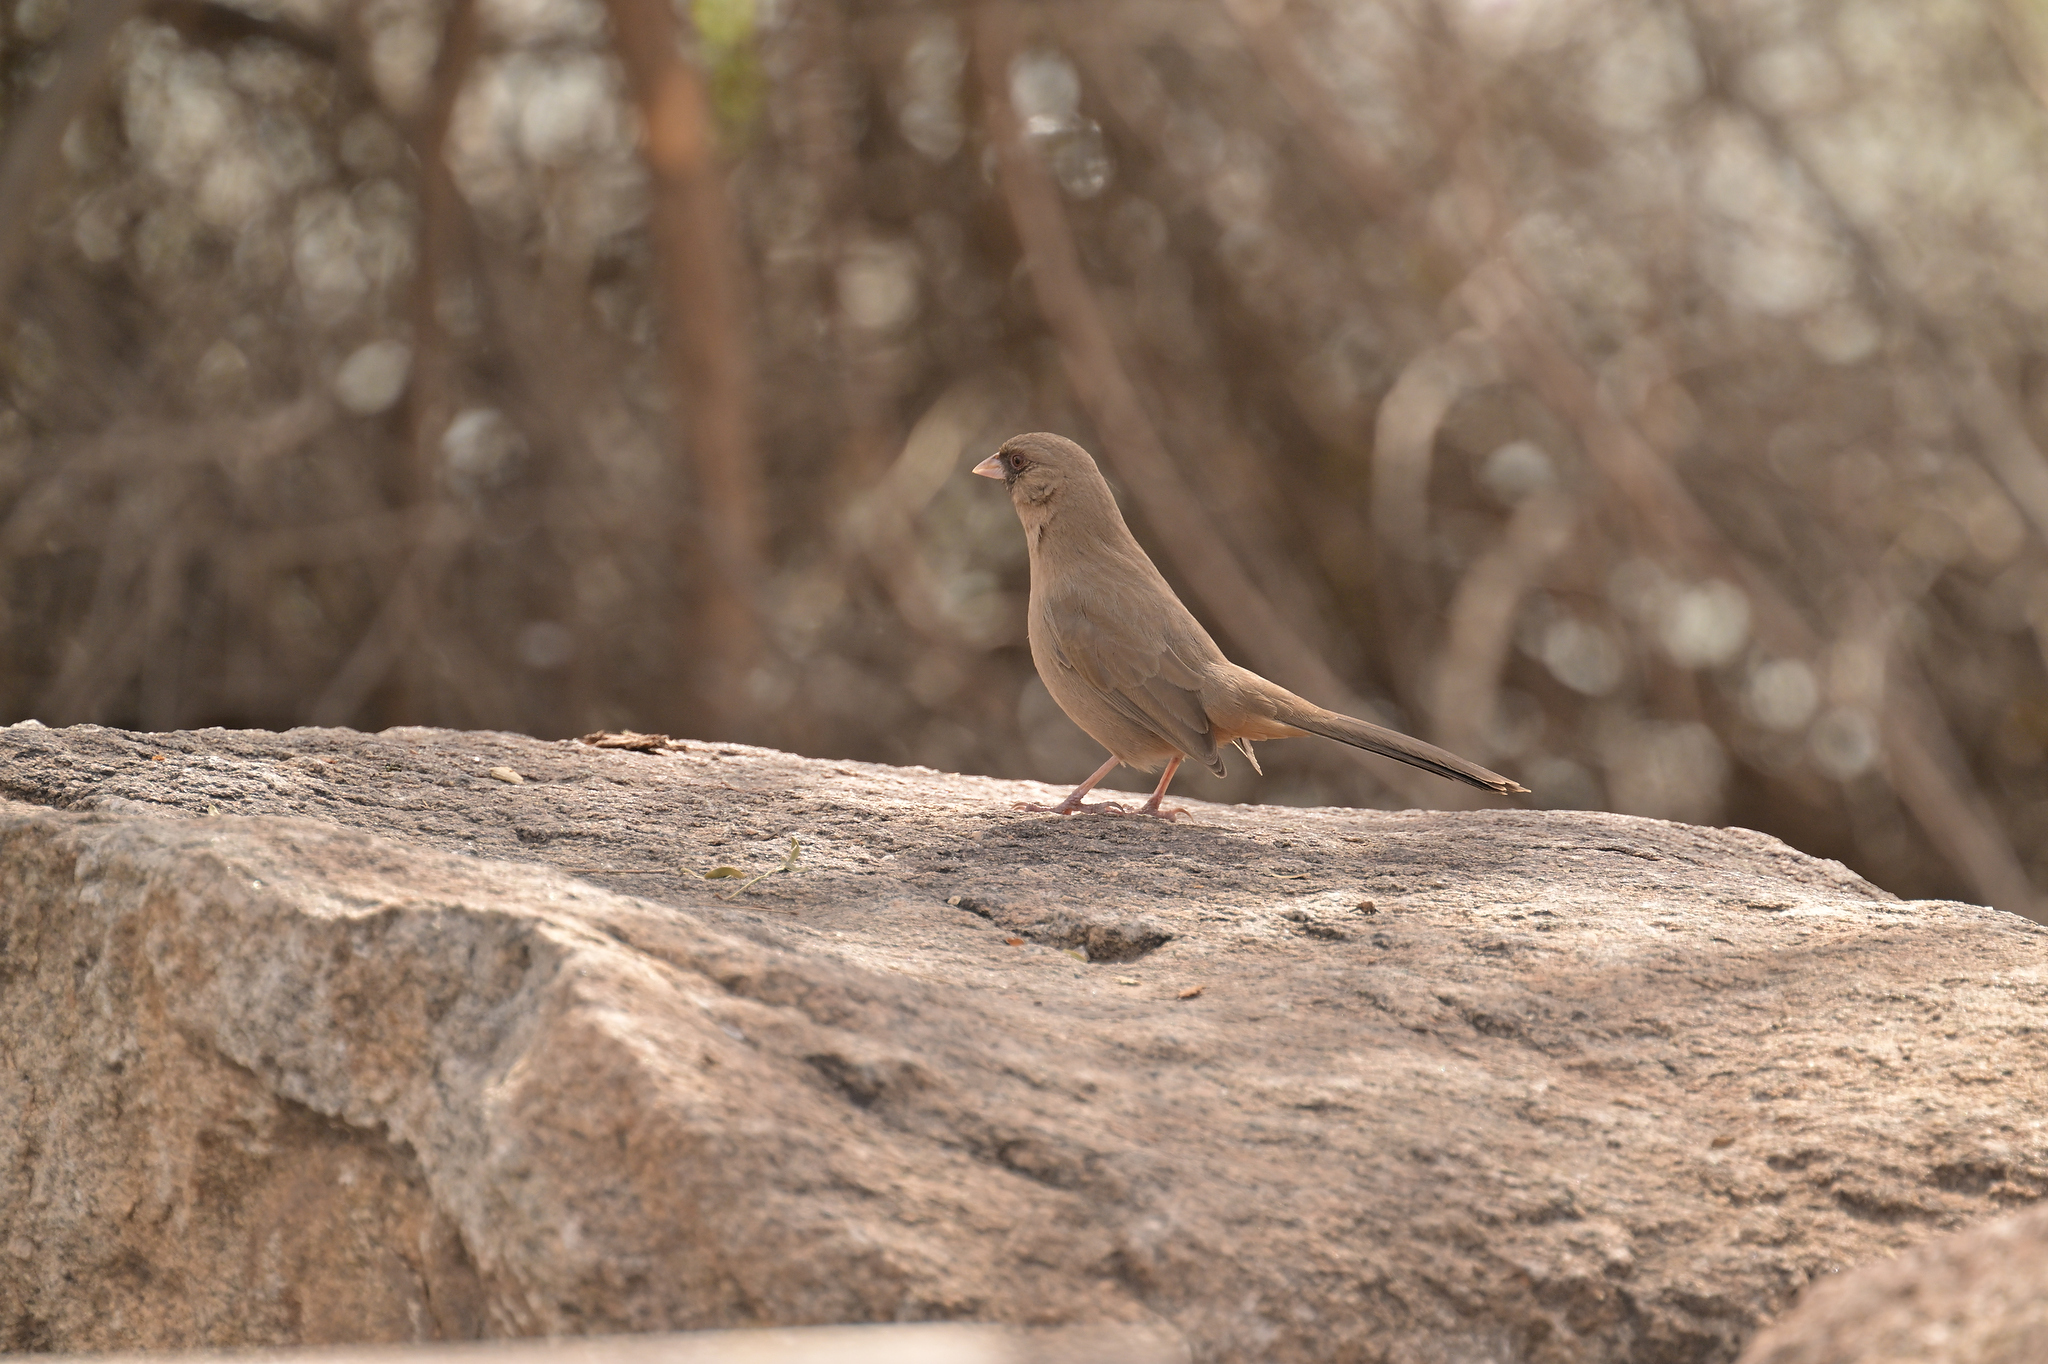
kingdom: Animalia
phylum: Chordata
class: Aves
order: Passeriformes
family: Passerellidae
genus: Melozone
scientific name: Melozone aberti
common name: Abert's towhee
